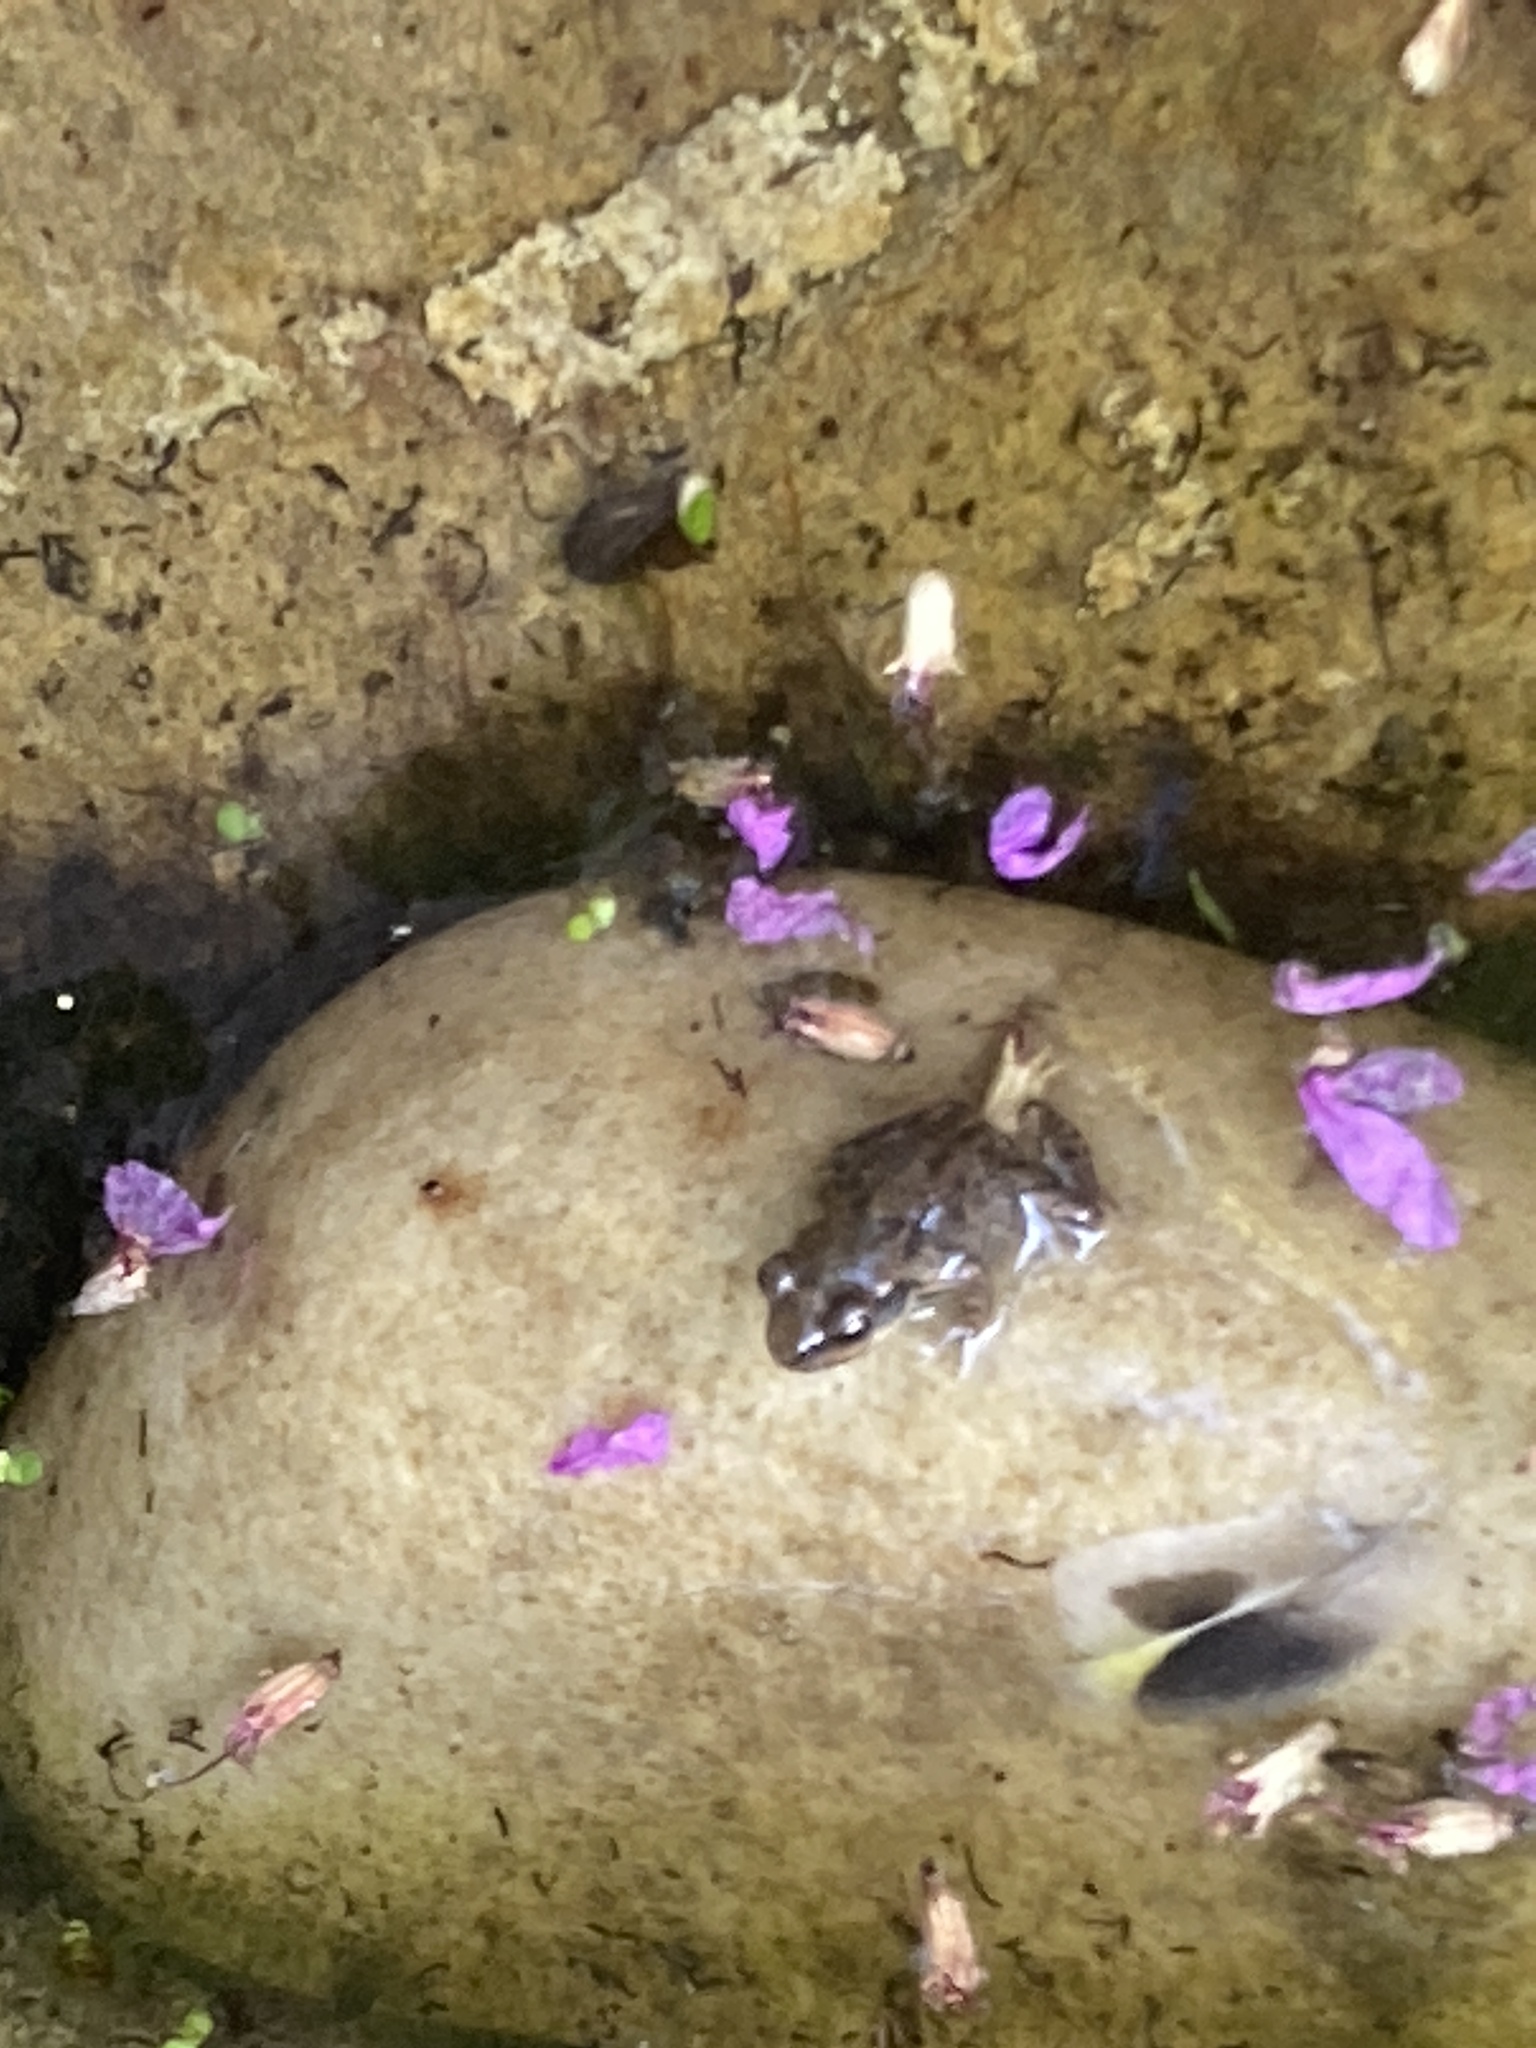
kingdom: Animalia
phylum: Chordata
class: Amphibia
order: Anura
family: Ranidae
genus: Rana
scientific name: Rana temporaria
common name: Common frog
